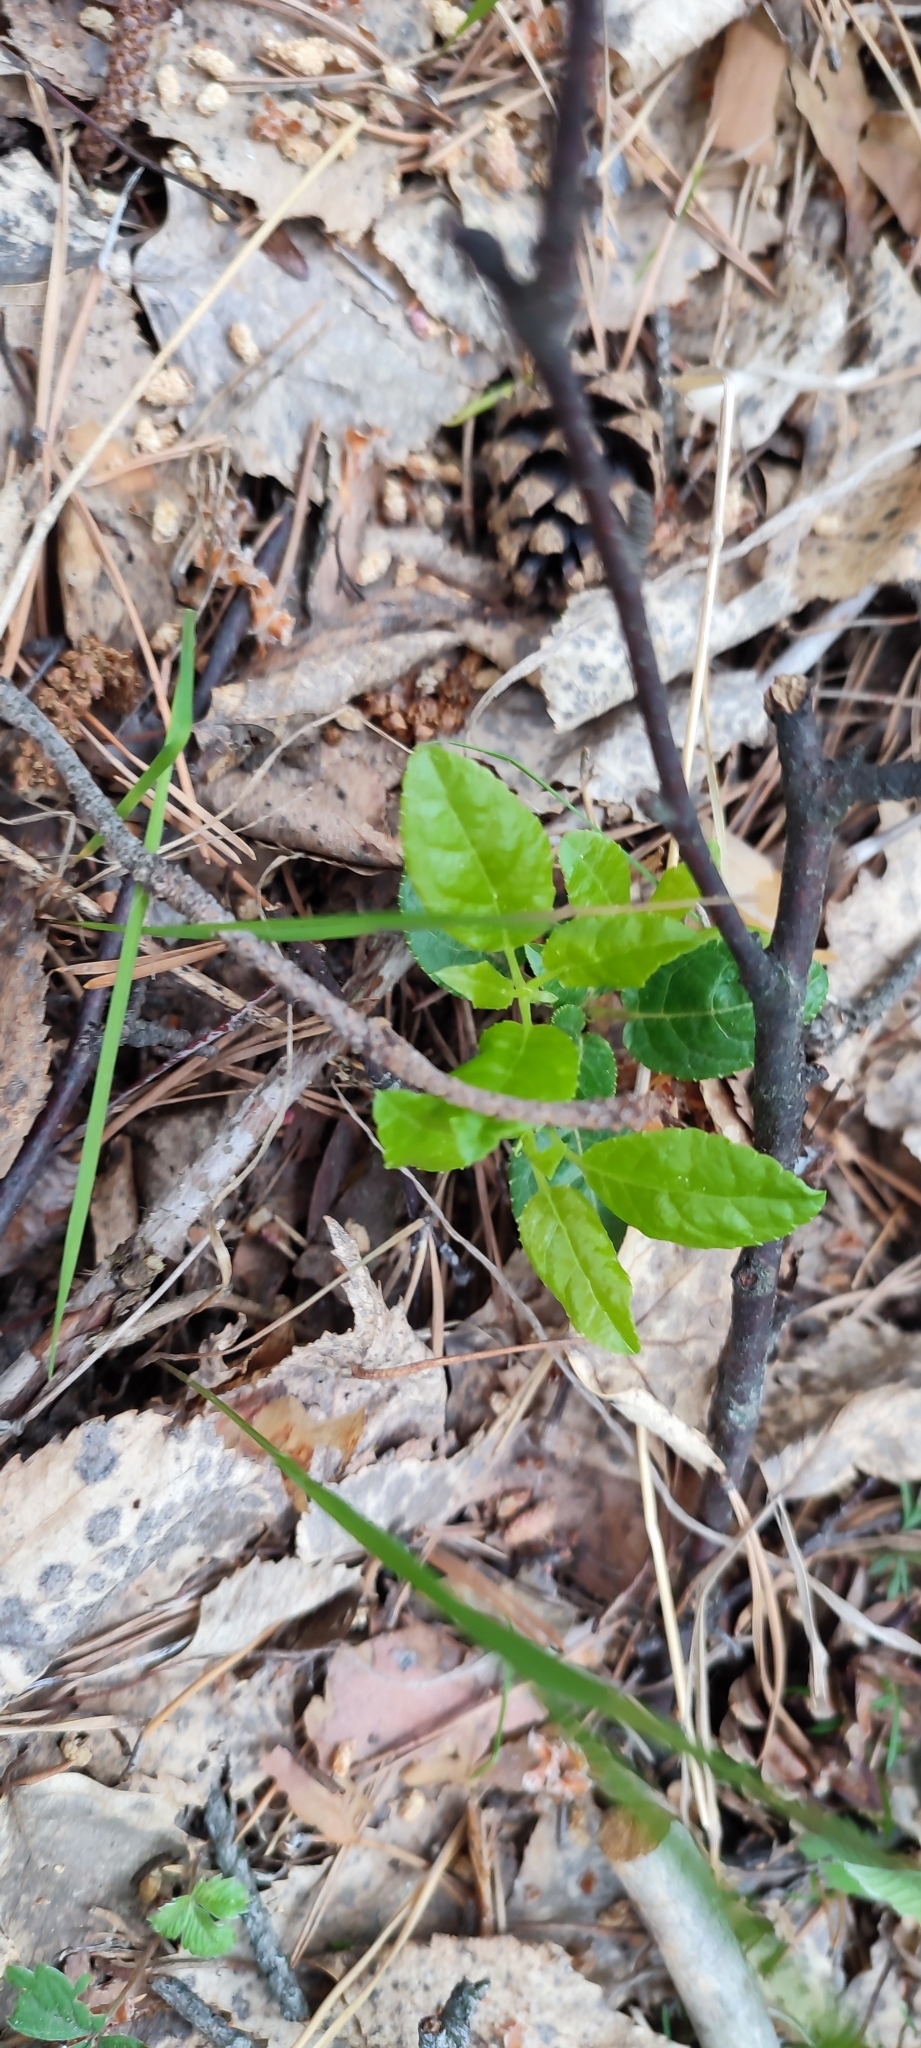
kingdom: Plantae
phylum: Tracheophyta
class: Magnoliopsida
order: Ericales
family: Ericaceae
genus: Orthilia
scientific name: Orthilia secunda
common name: One-sided orthilia
